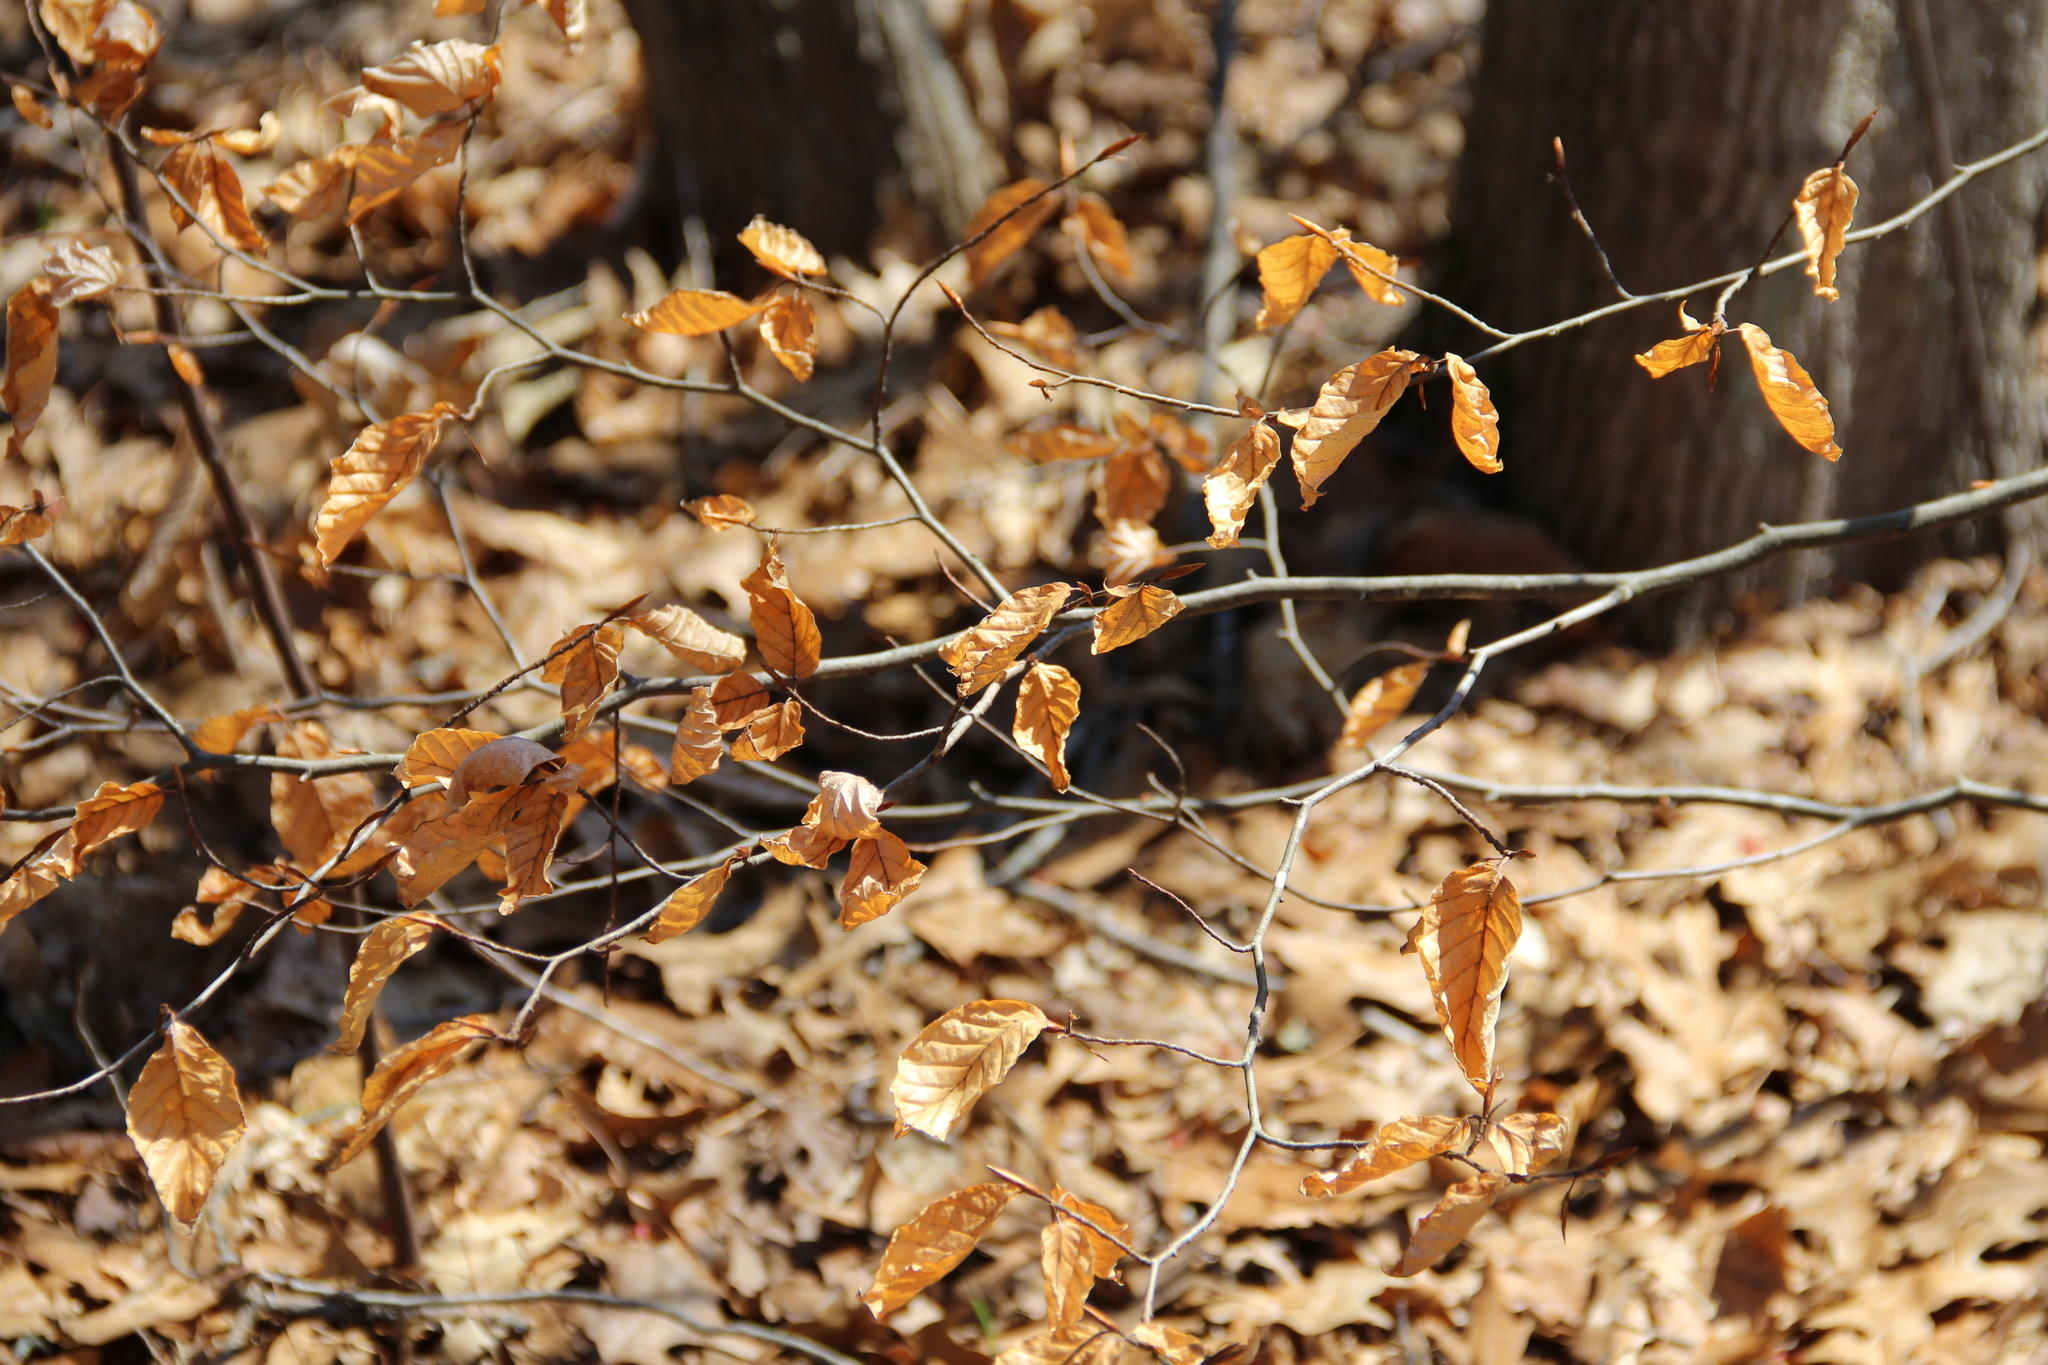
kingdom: Plantae
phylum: Tracheophyta
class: Magnoliopsida
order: Fagales
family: Fagaceae
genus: Fagus
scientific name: Fagus grandifolia
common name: American beech
